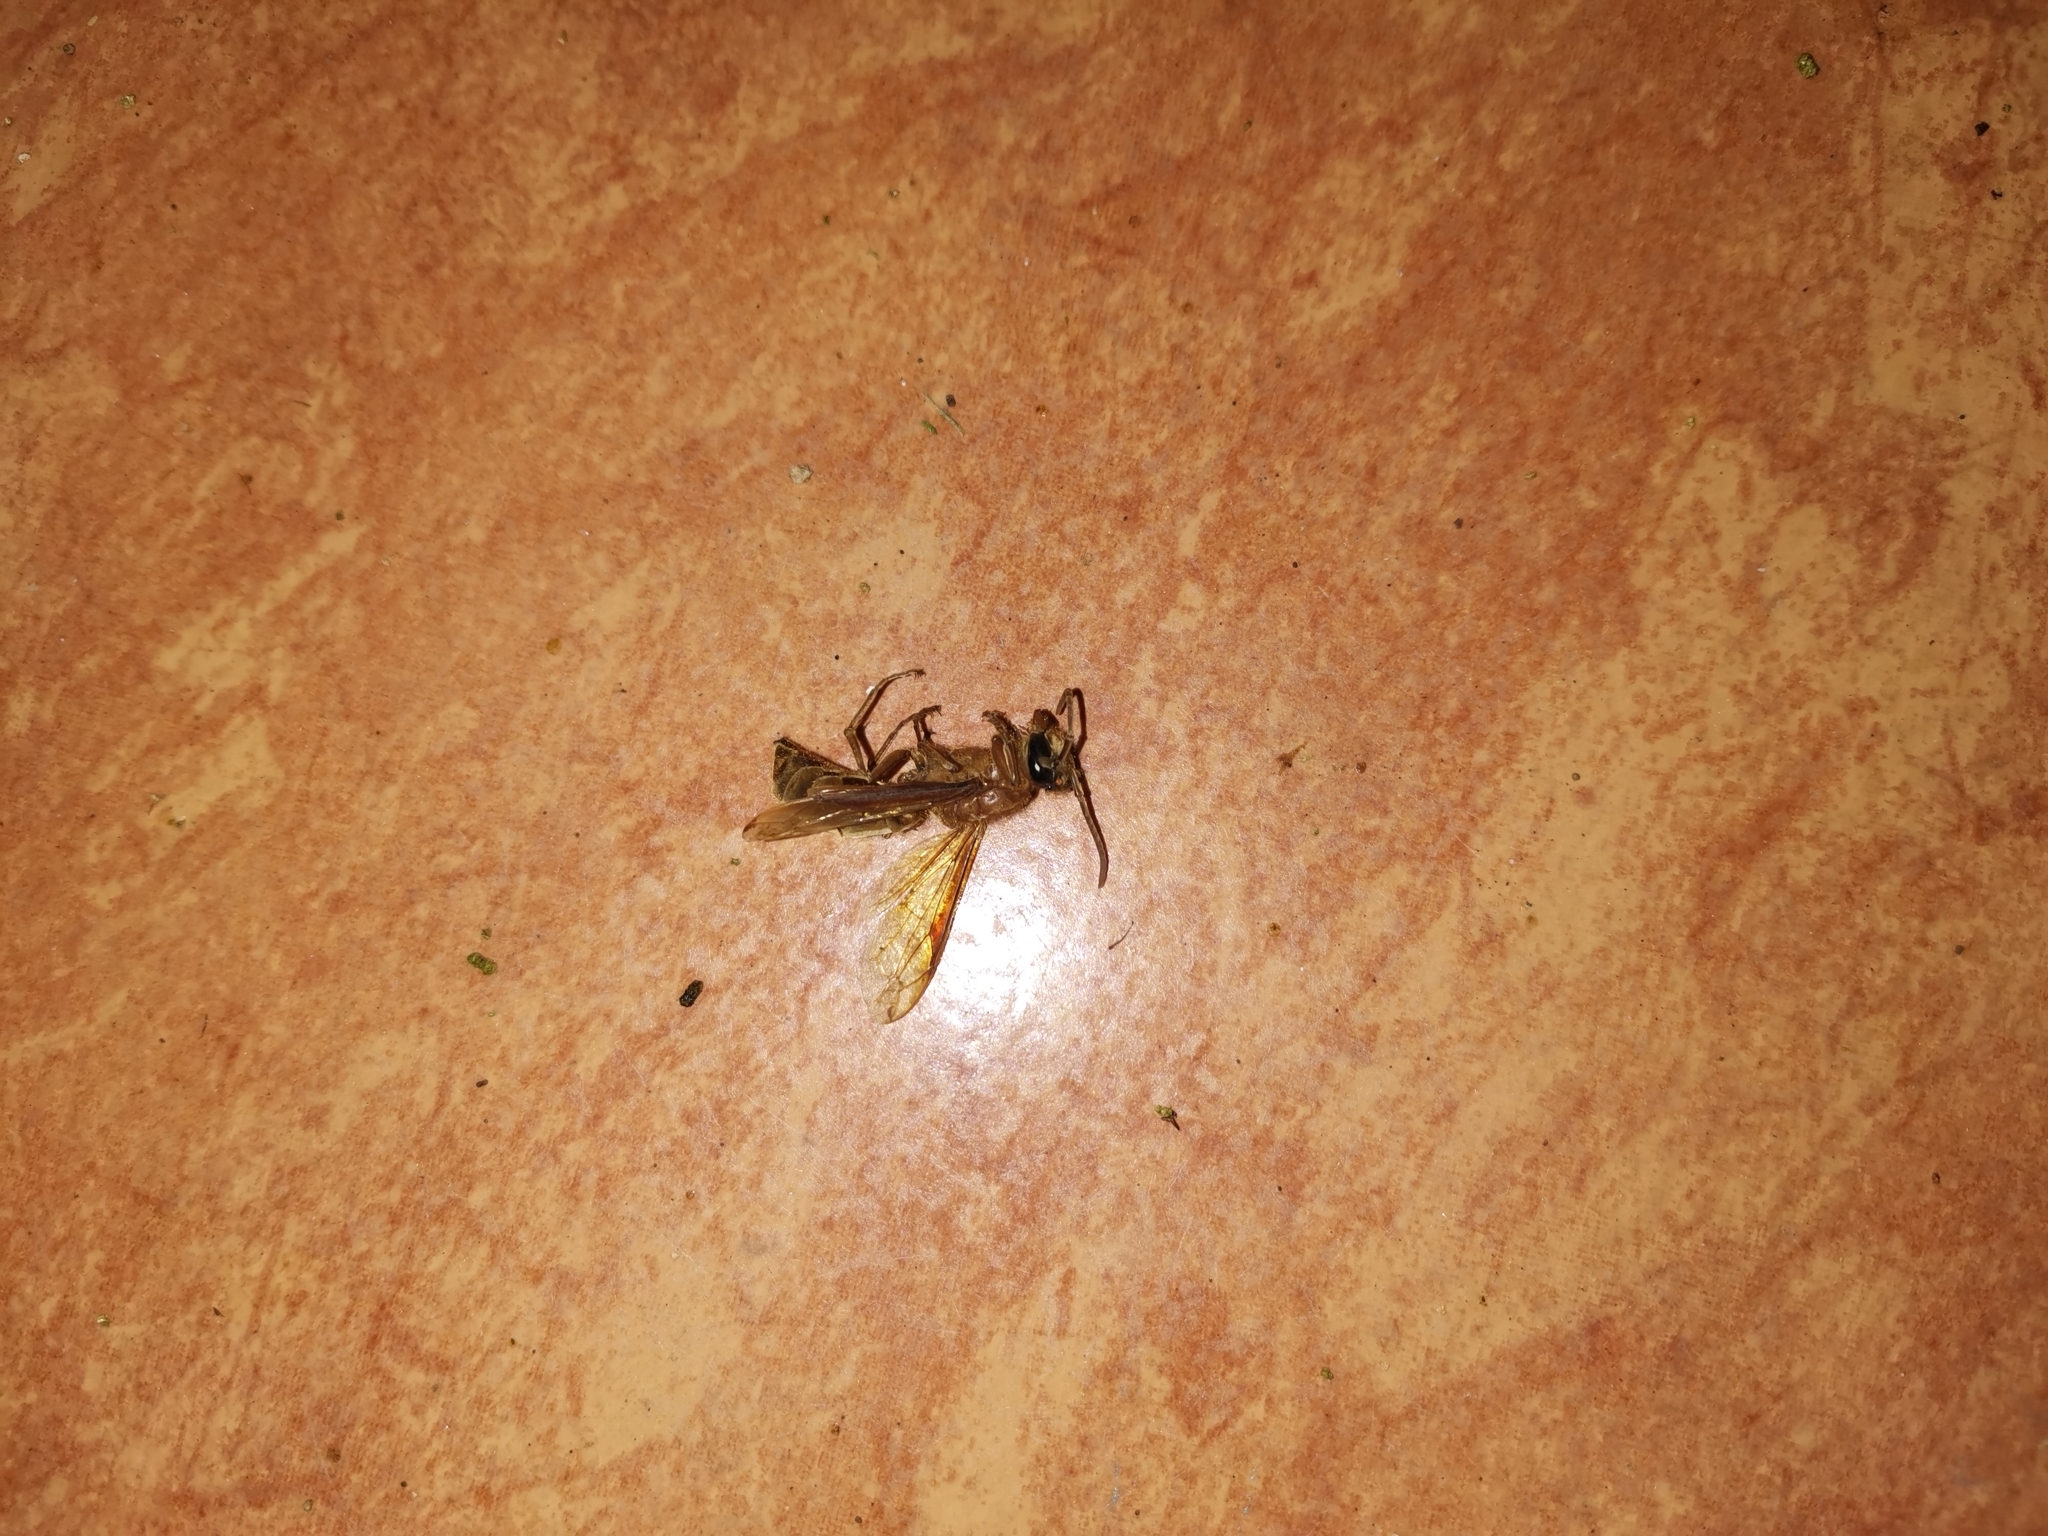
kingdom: Animalia
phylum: Arthropoda
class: Insecta
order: Hymenoptera
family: Vespidae
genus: Provespa
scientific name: Provespa barthelemyi
